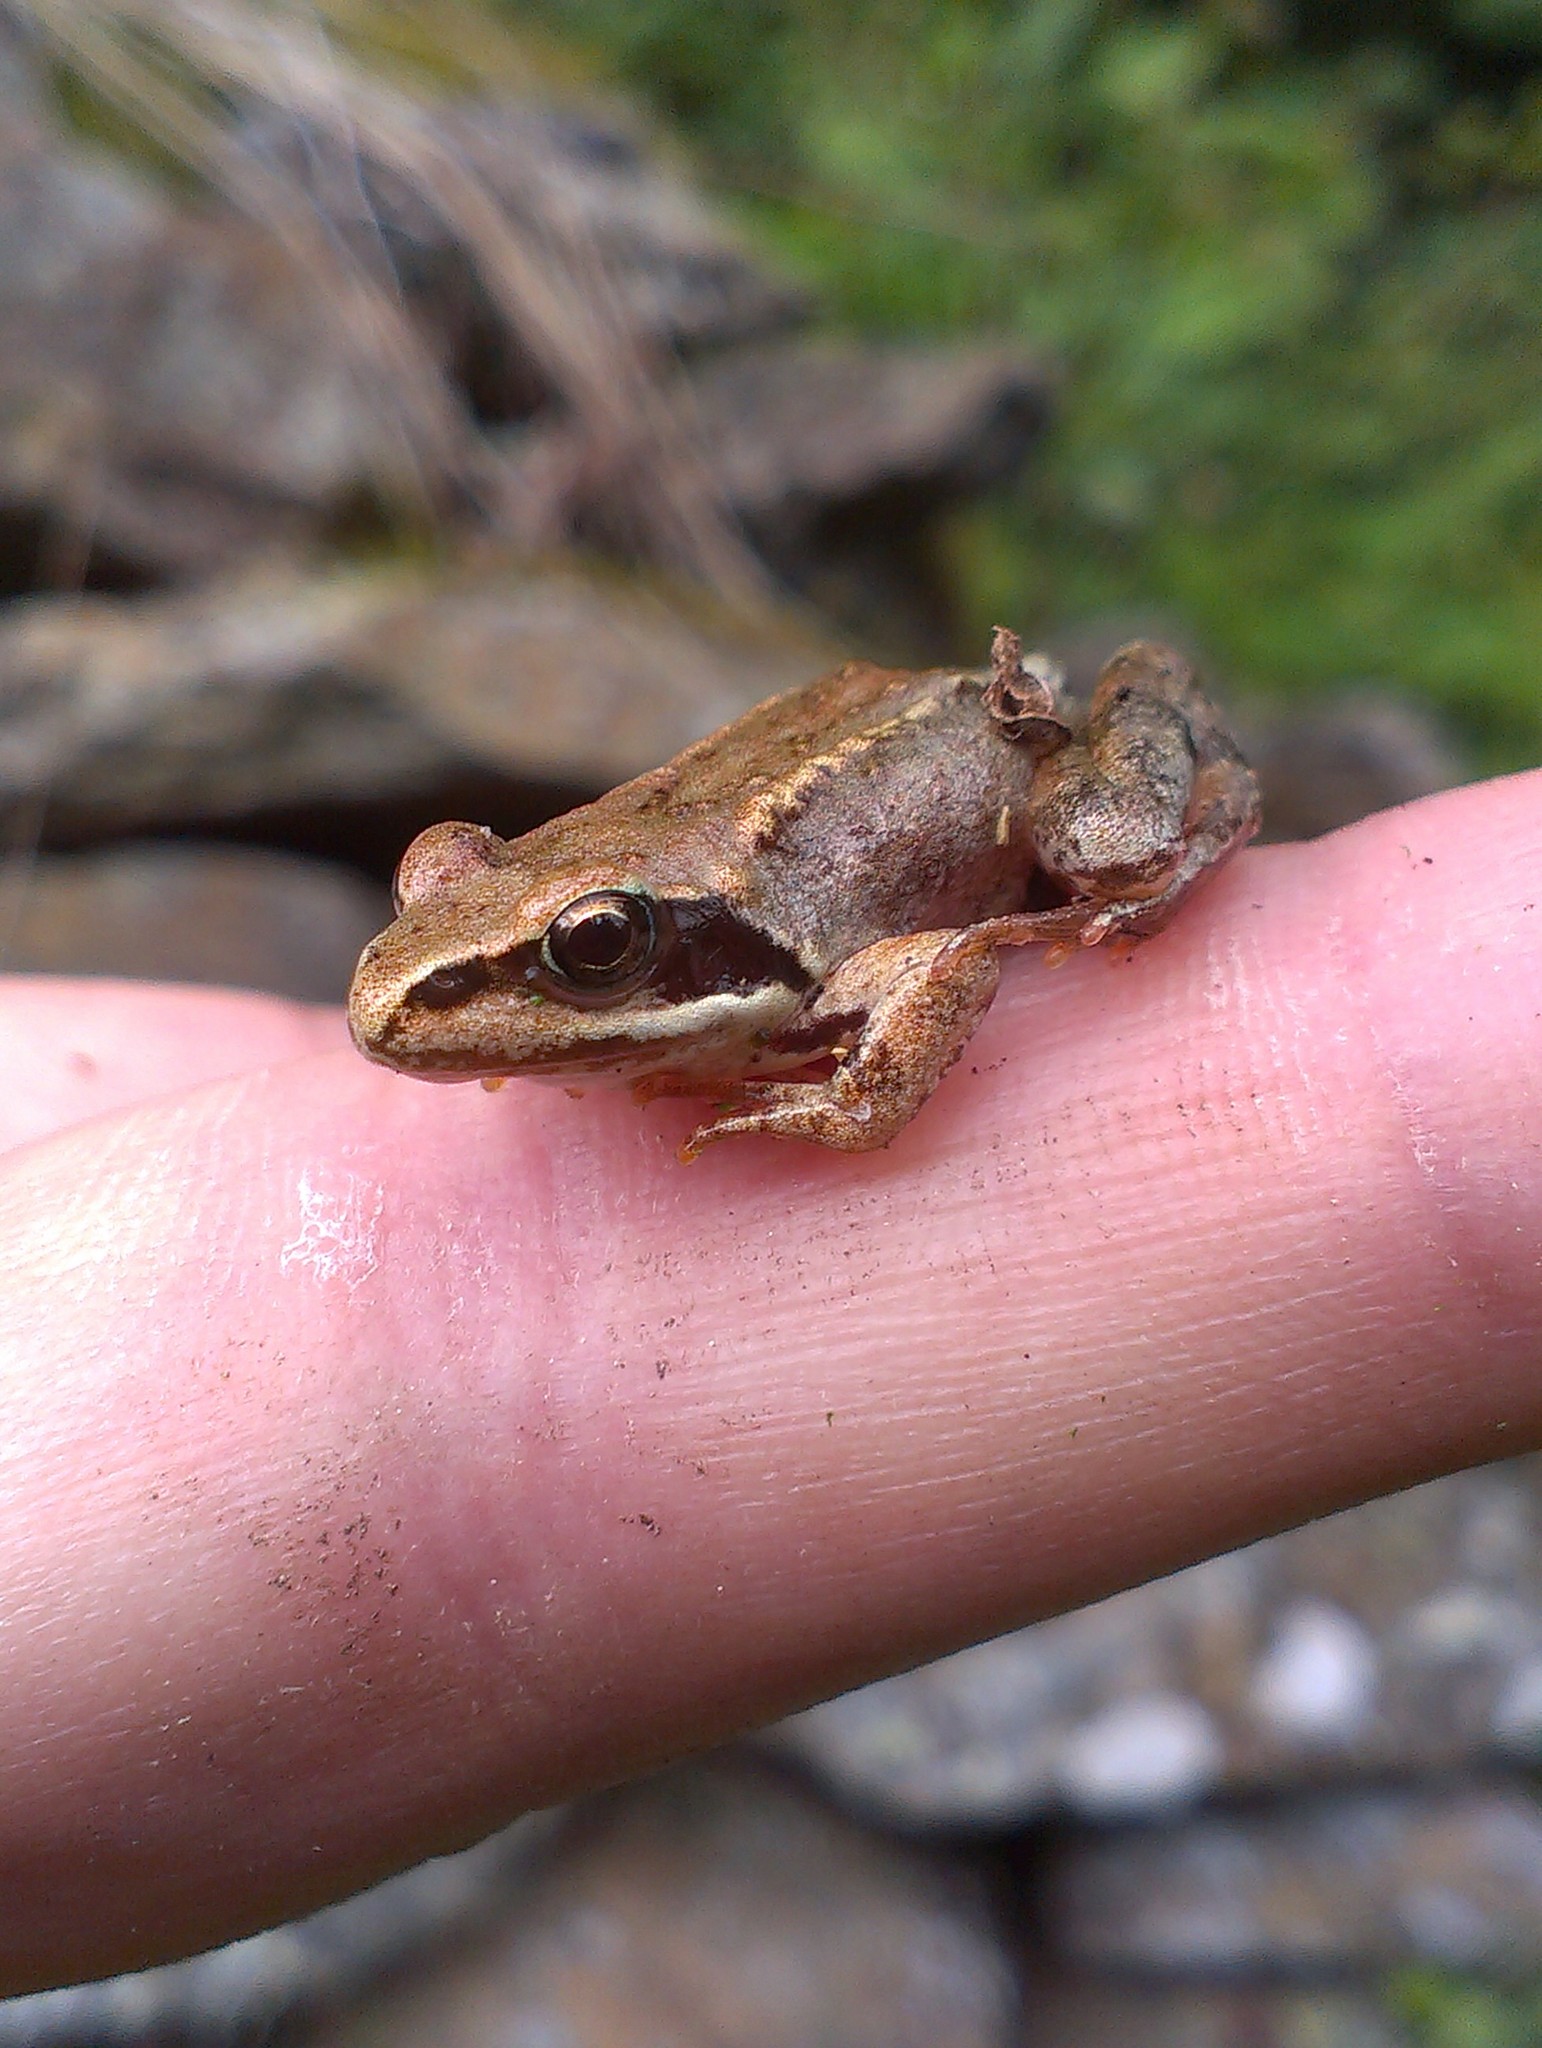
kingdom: Animalia
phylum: Chordata
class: Amphibia
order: Anura
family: Ranidae
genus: Rana
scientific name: Rana temporaria
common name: Common frog
